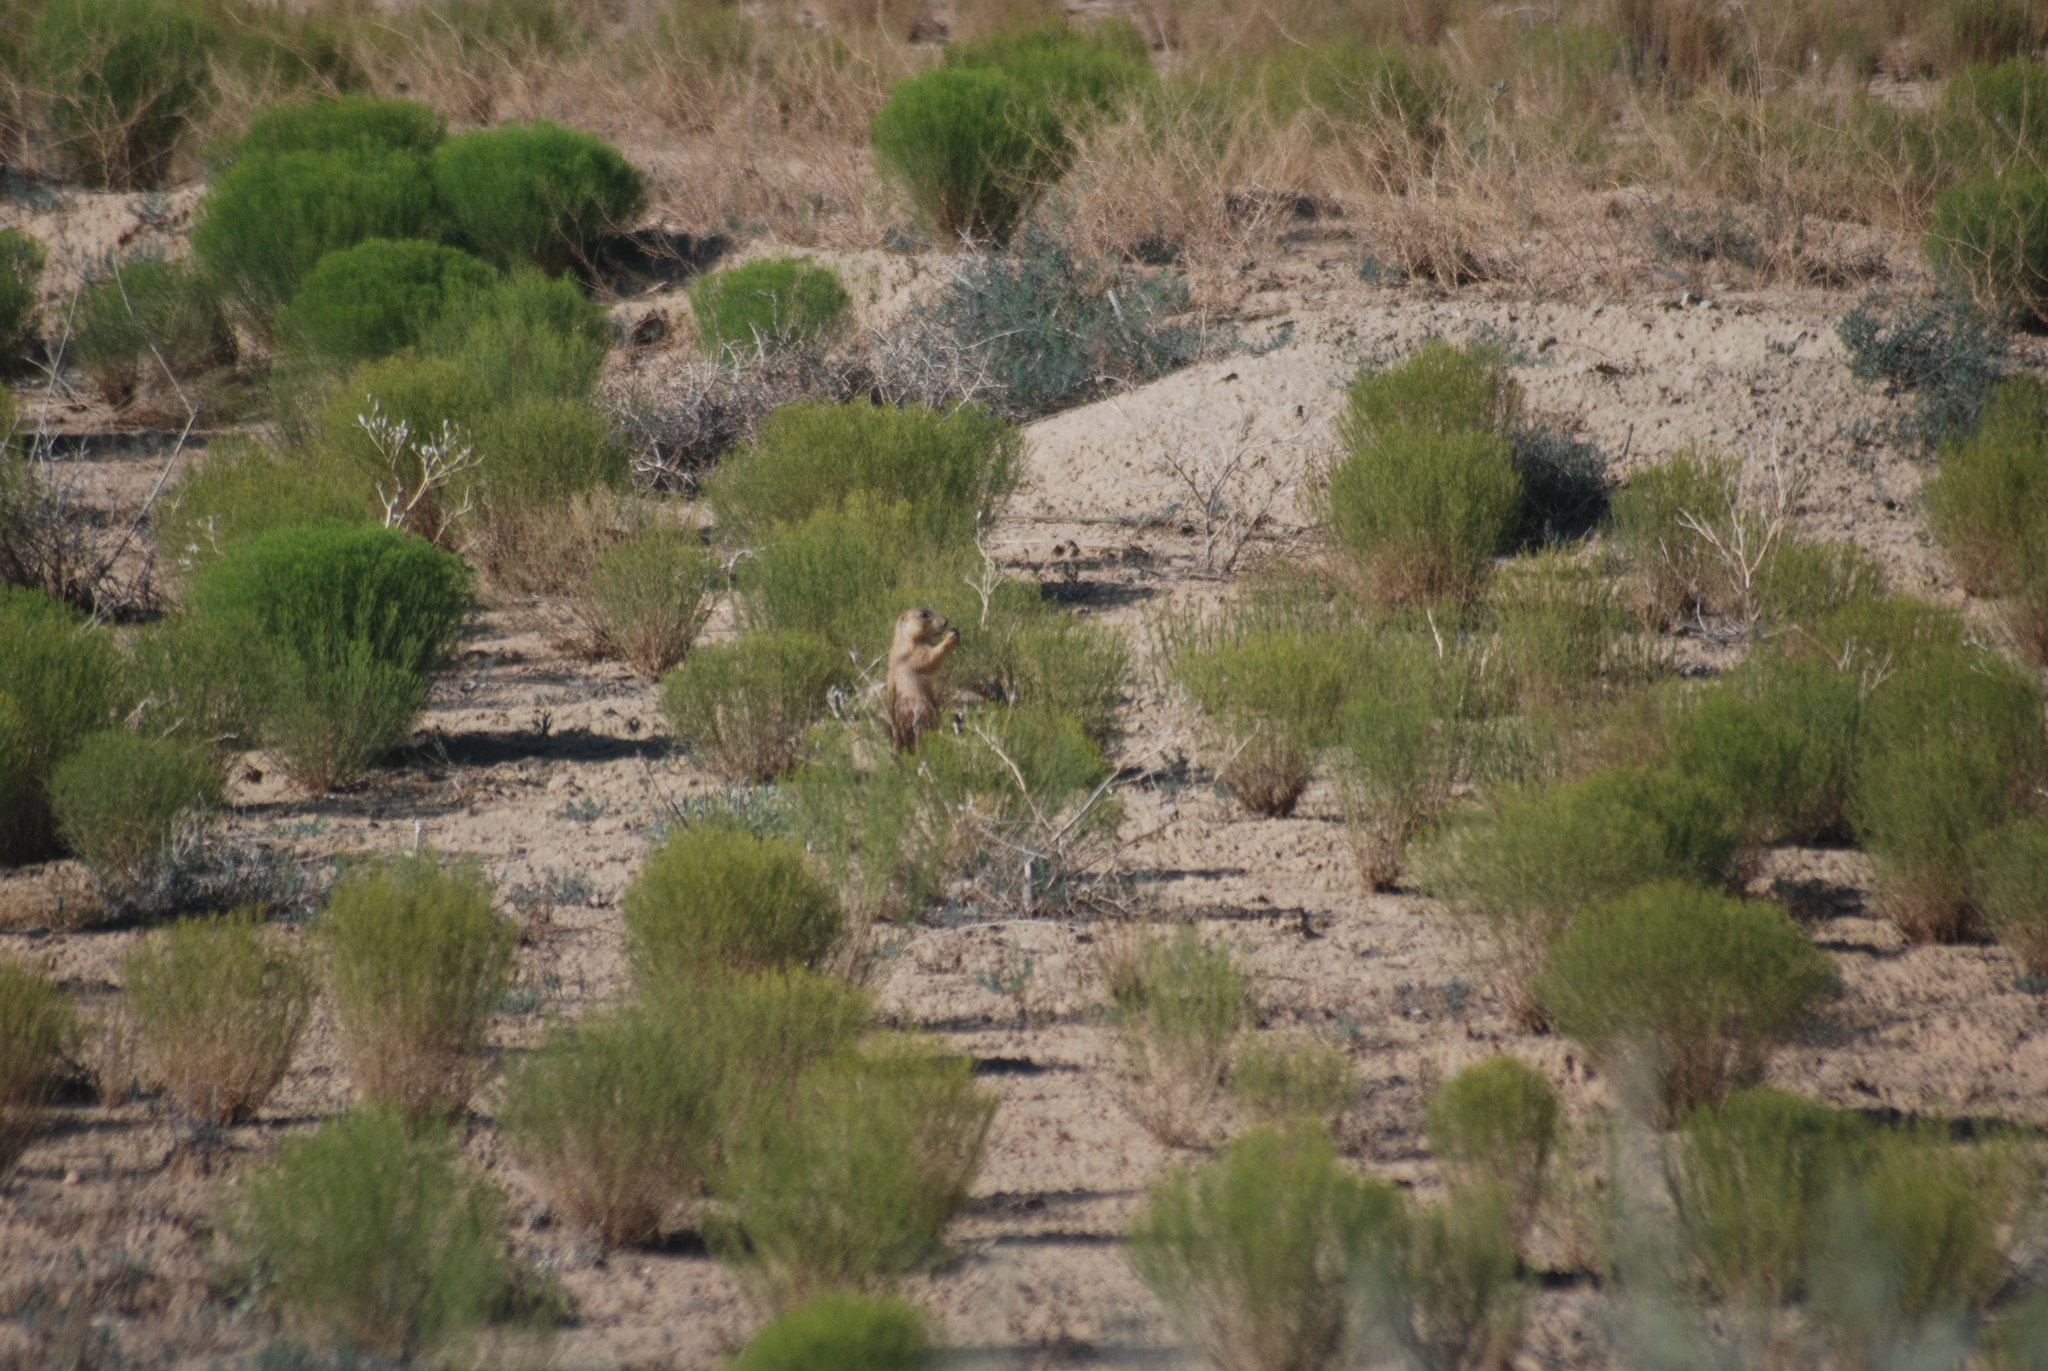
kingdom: Animalia
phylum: Chordata
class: Mammalia
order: Rodentia
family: Sciuridae
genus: Cynomys
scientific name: Cynomys gunnisoni
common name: Gunnison's prairie dog
